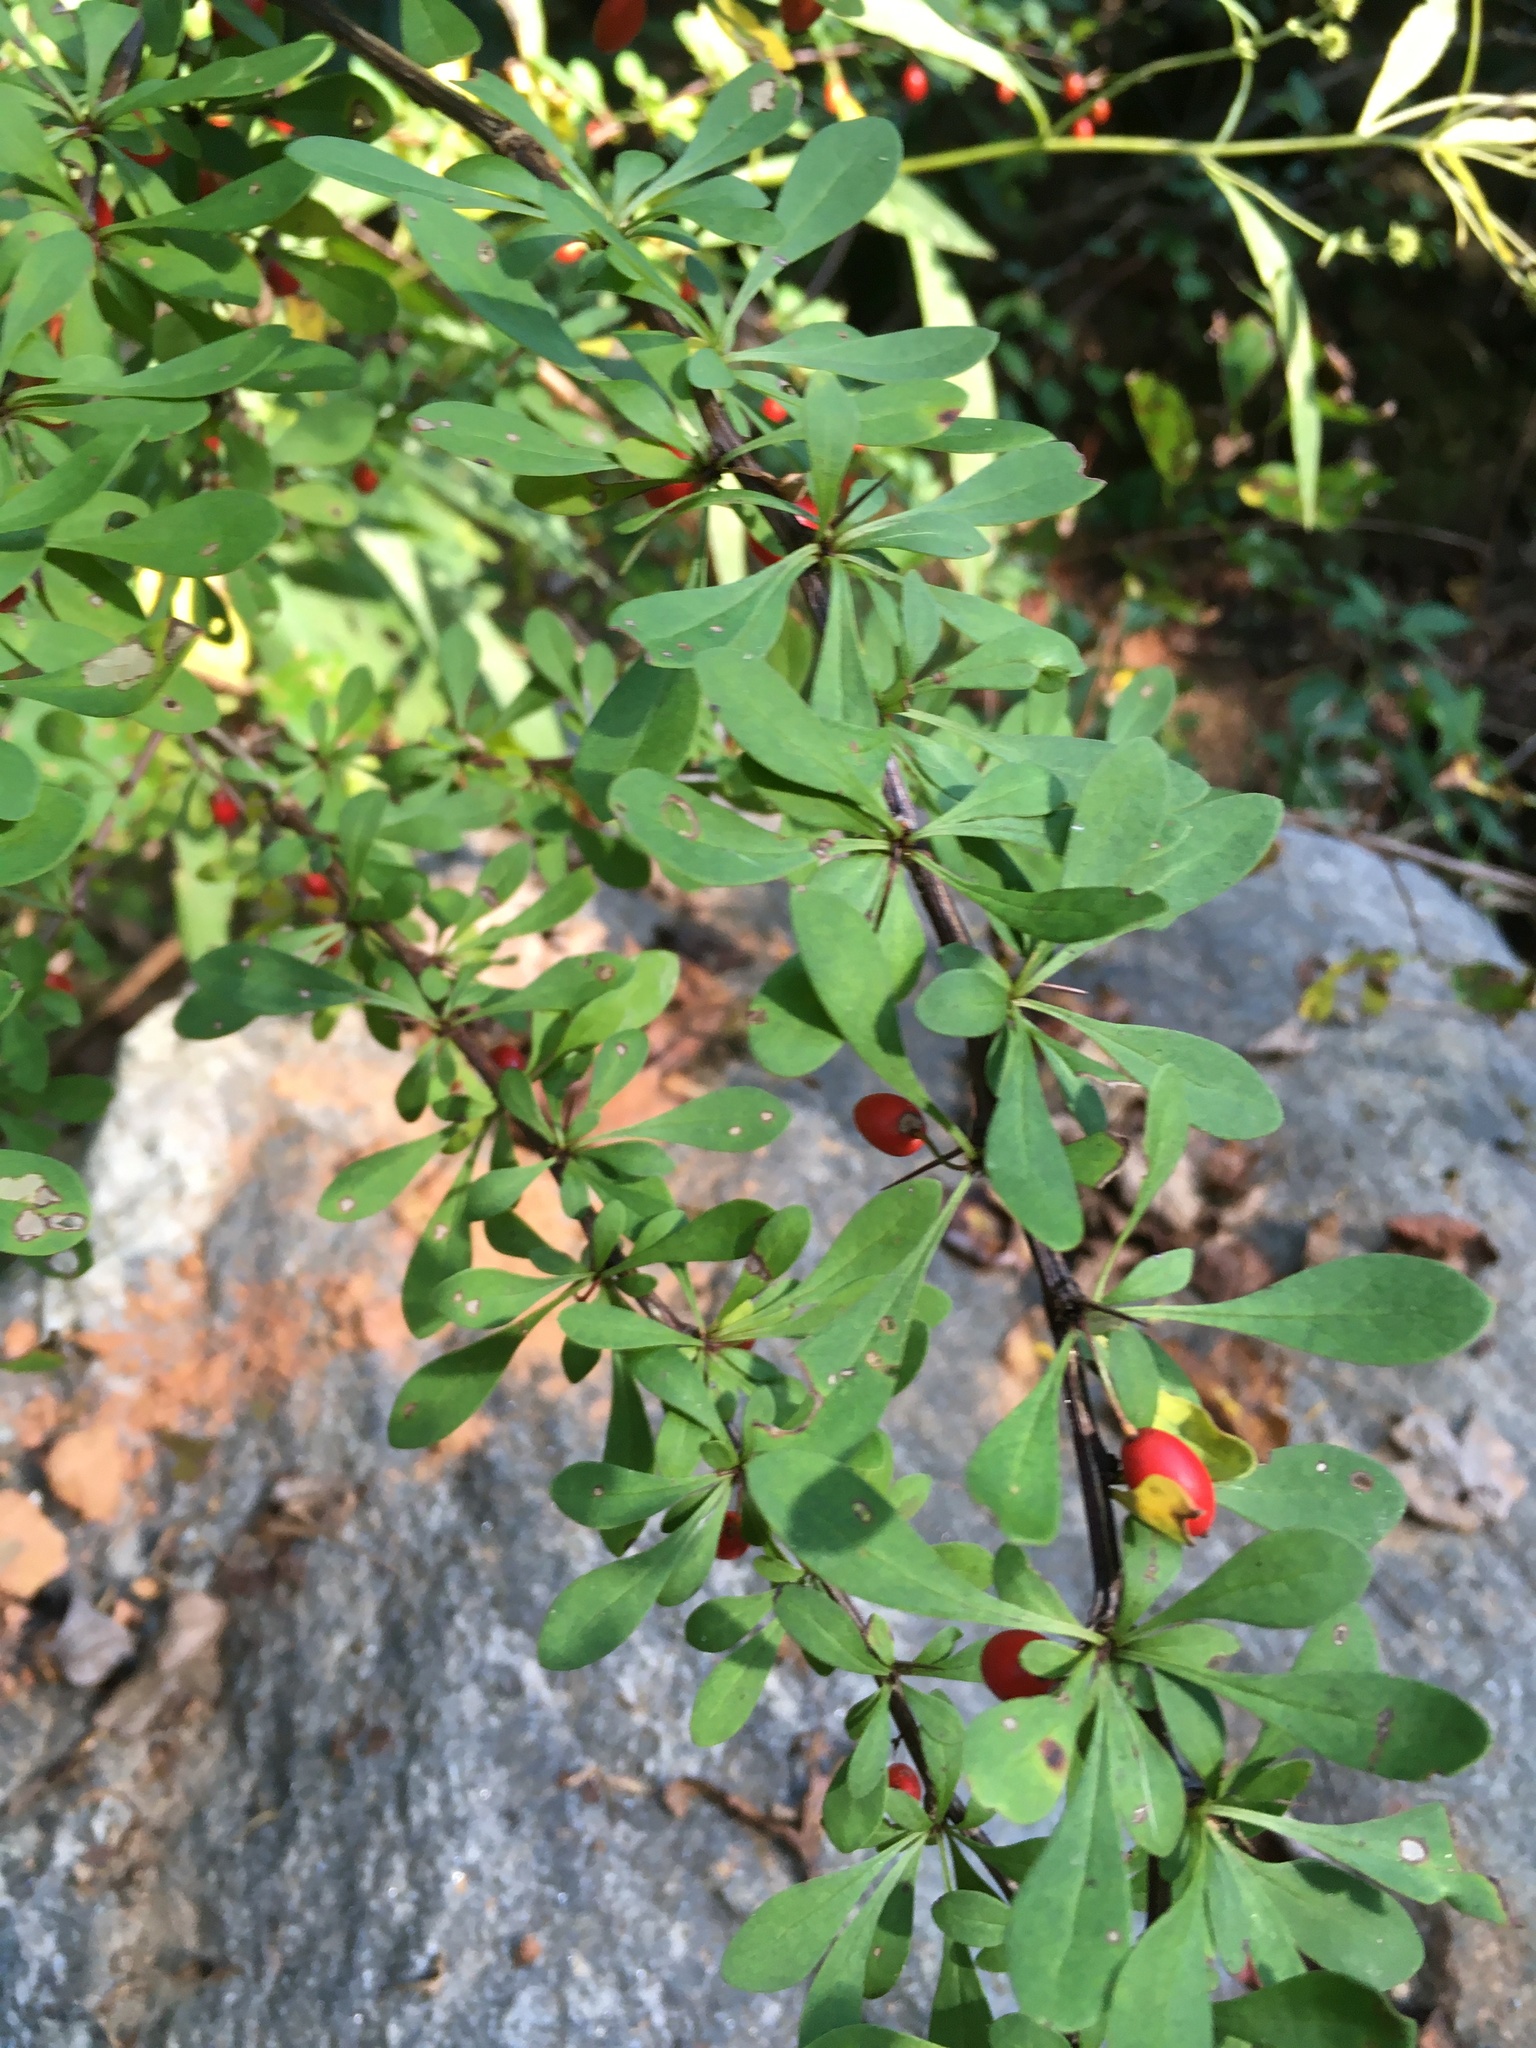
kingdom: Plantae
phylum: Tracheophyta
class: Magnoliopsida
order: Ranunculales
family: Berberidaceae
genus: Berberis
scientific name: Berberis thunbergii
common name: Japanese barberry
